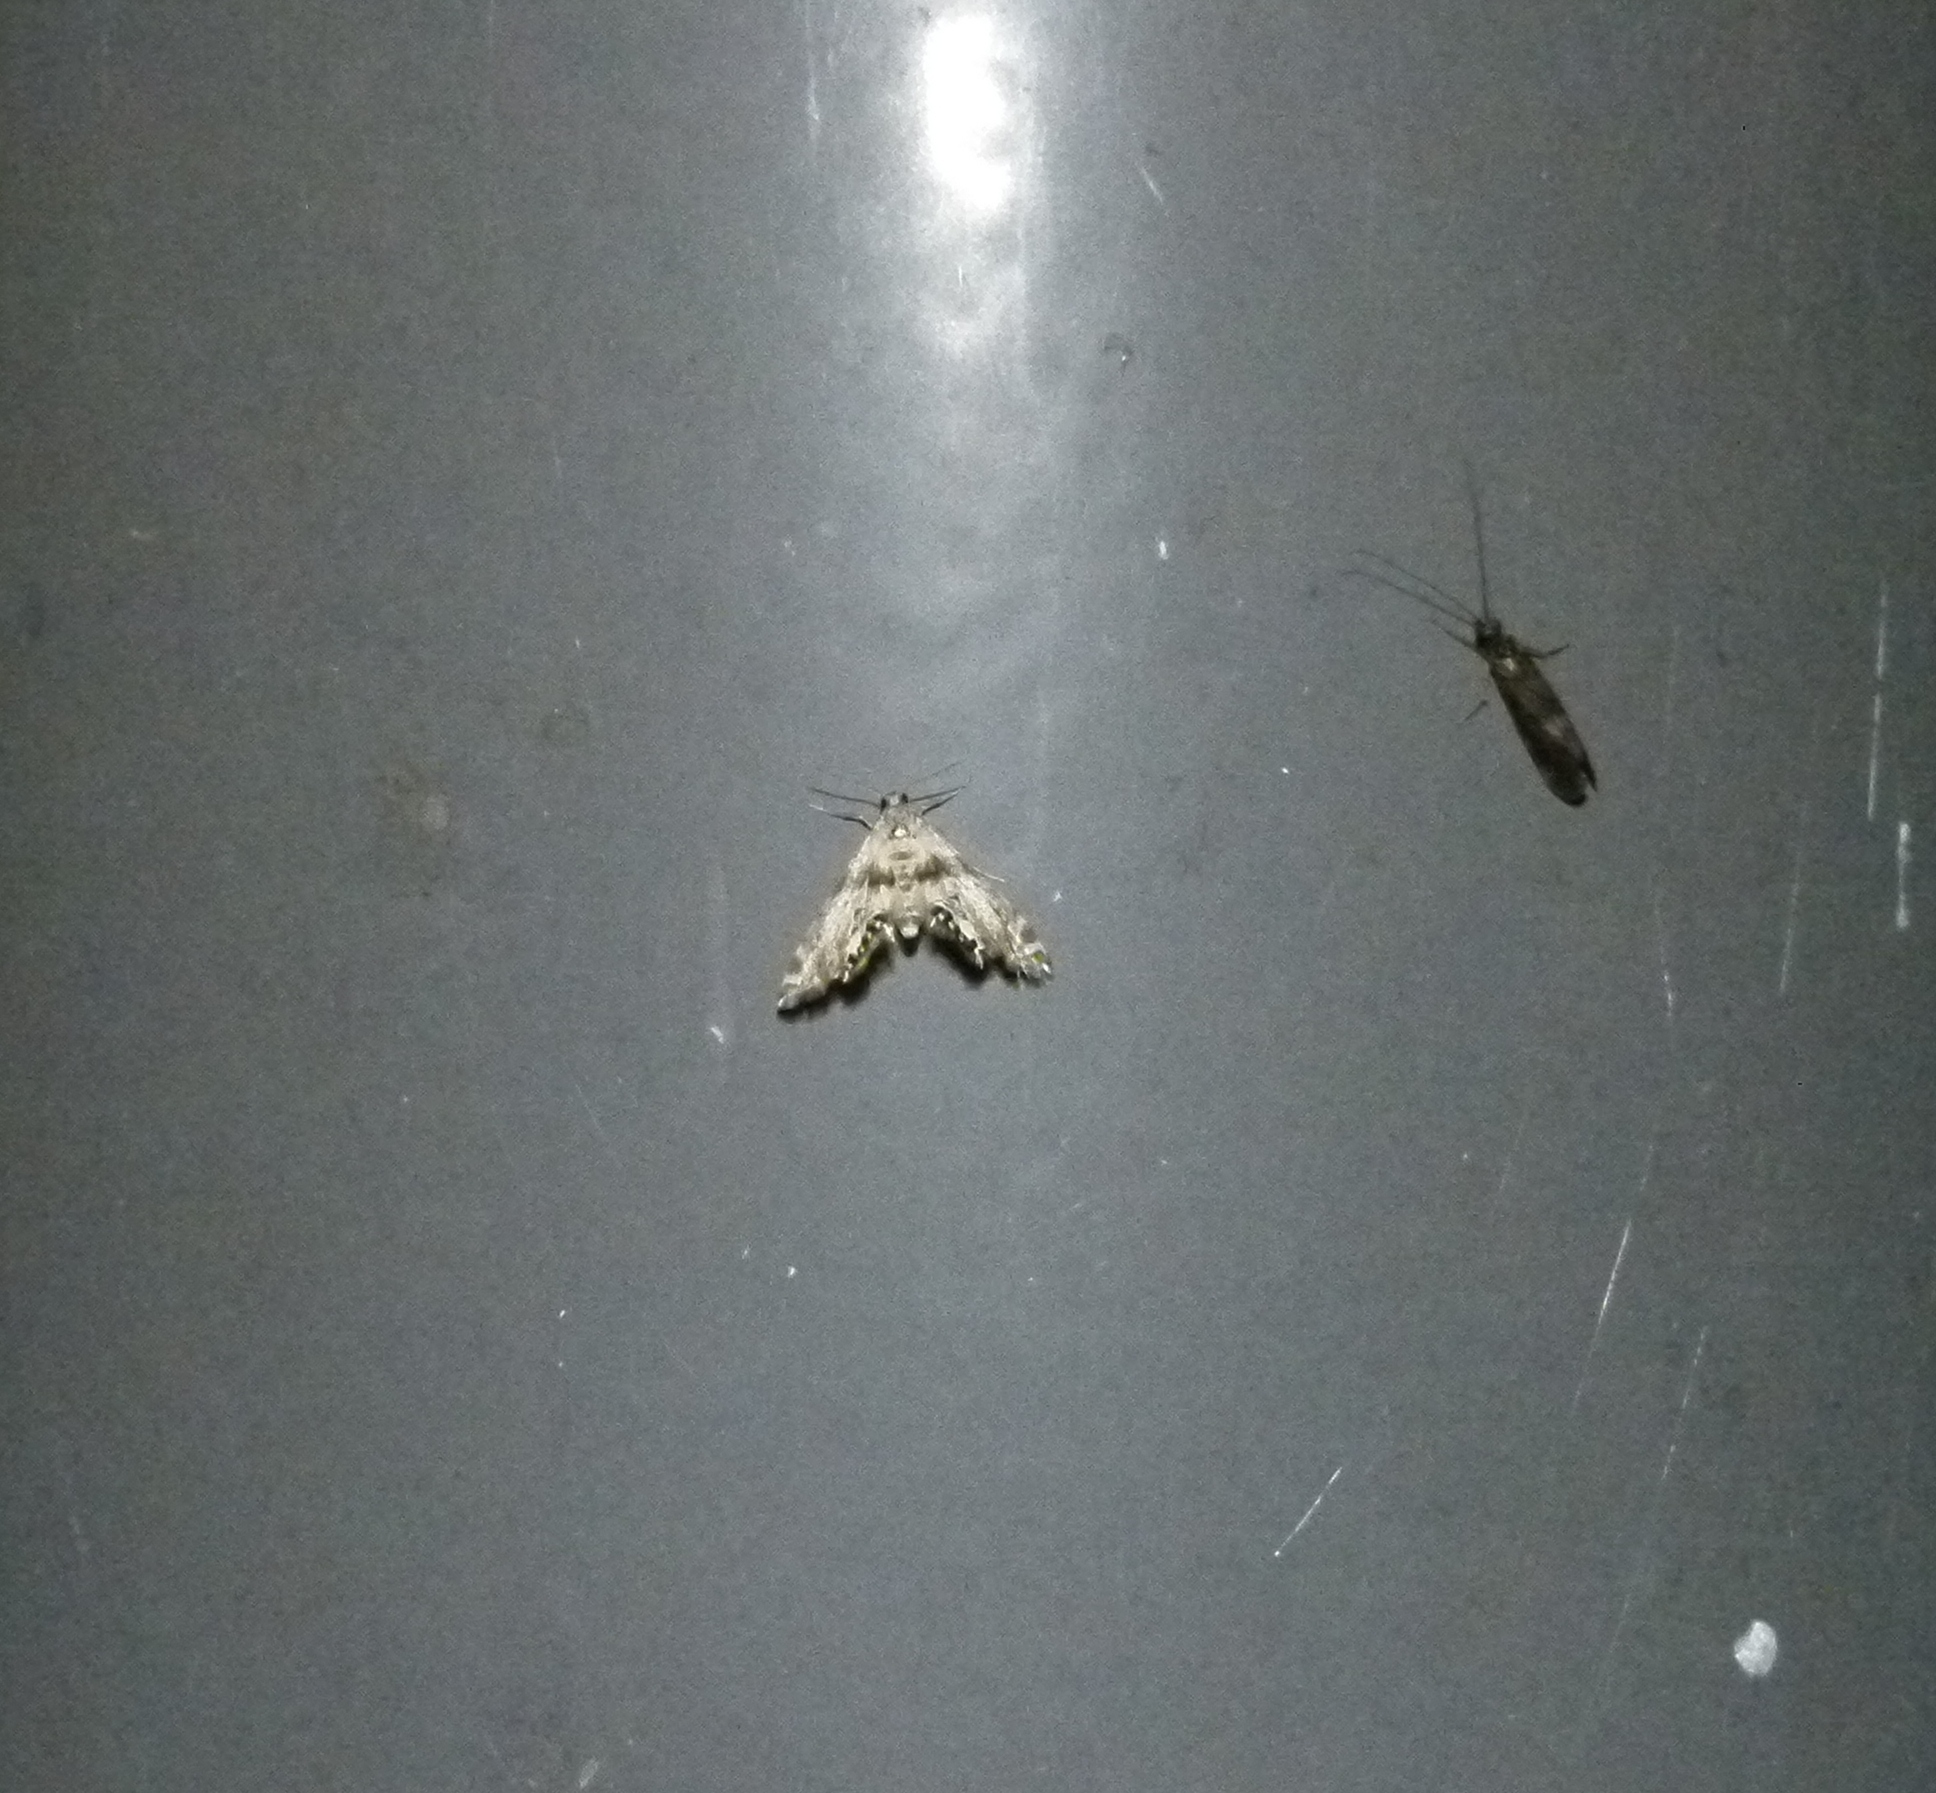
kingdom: Animalia
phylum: Arthropoda
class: Insecta
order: Lepidoptera
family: Crambidae
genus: Petrophila
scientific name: Petrophila
